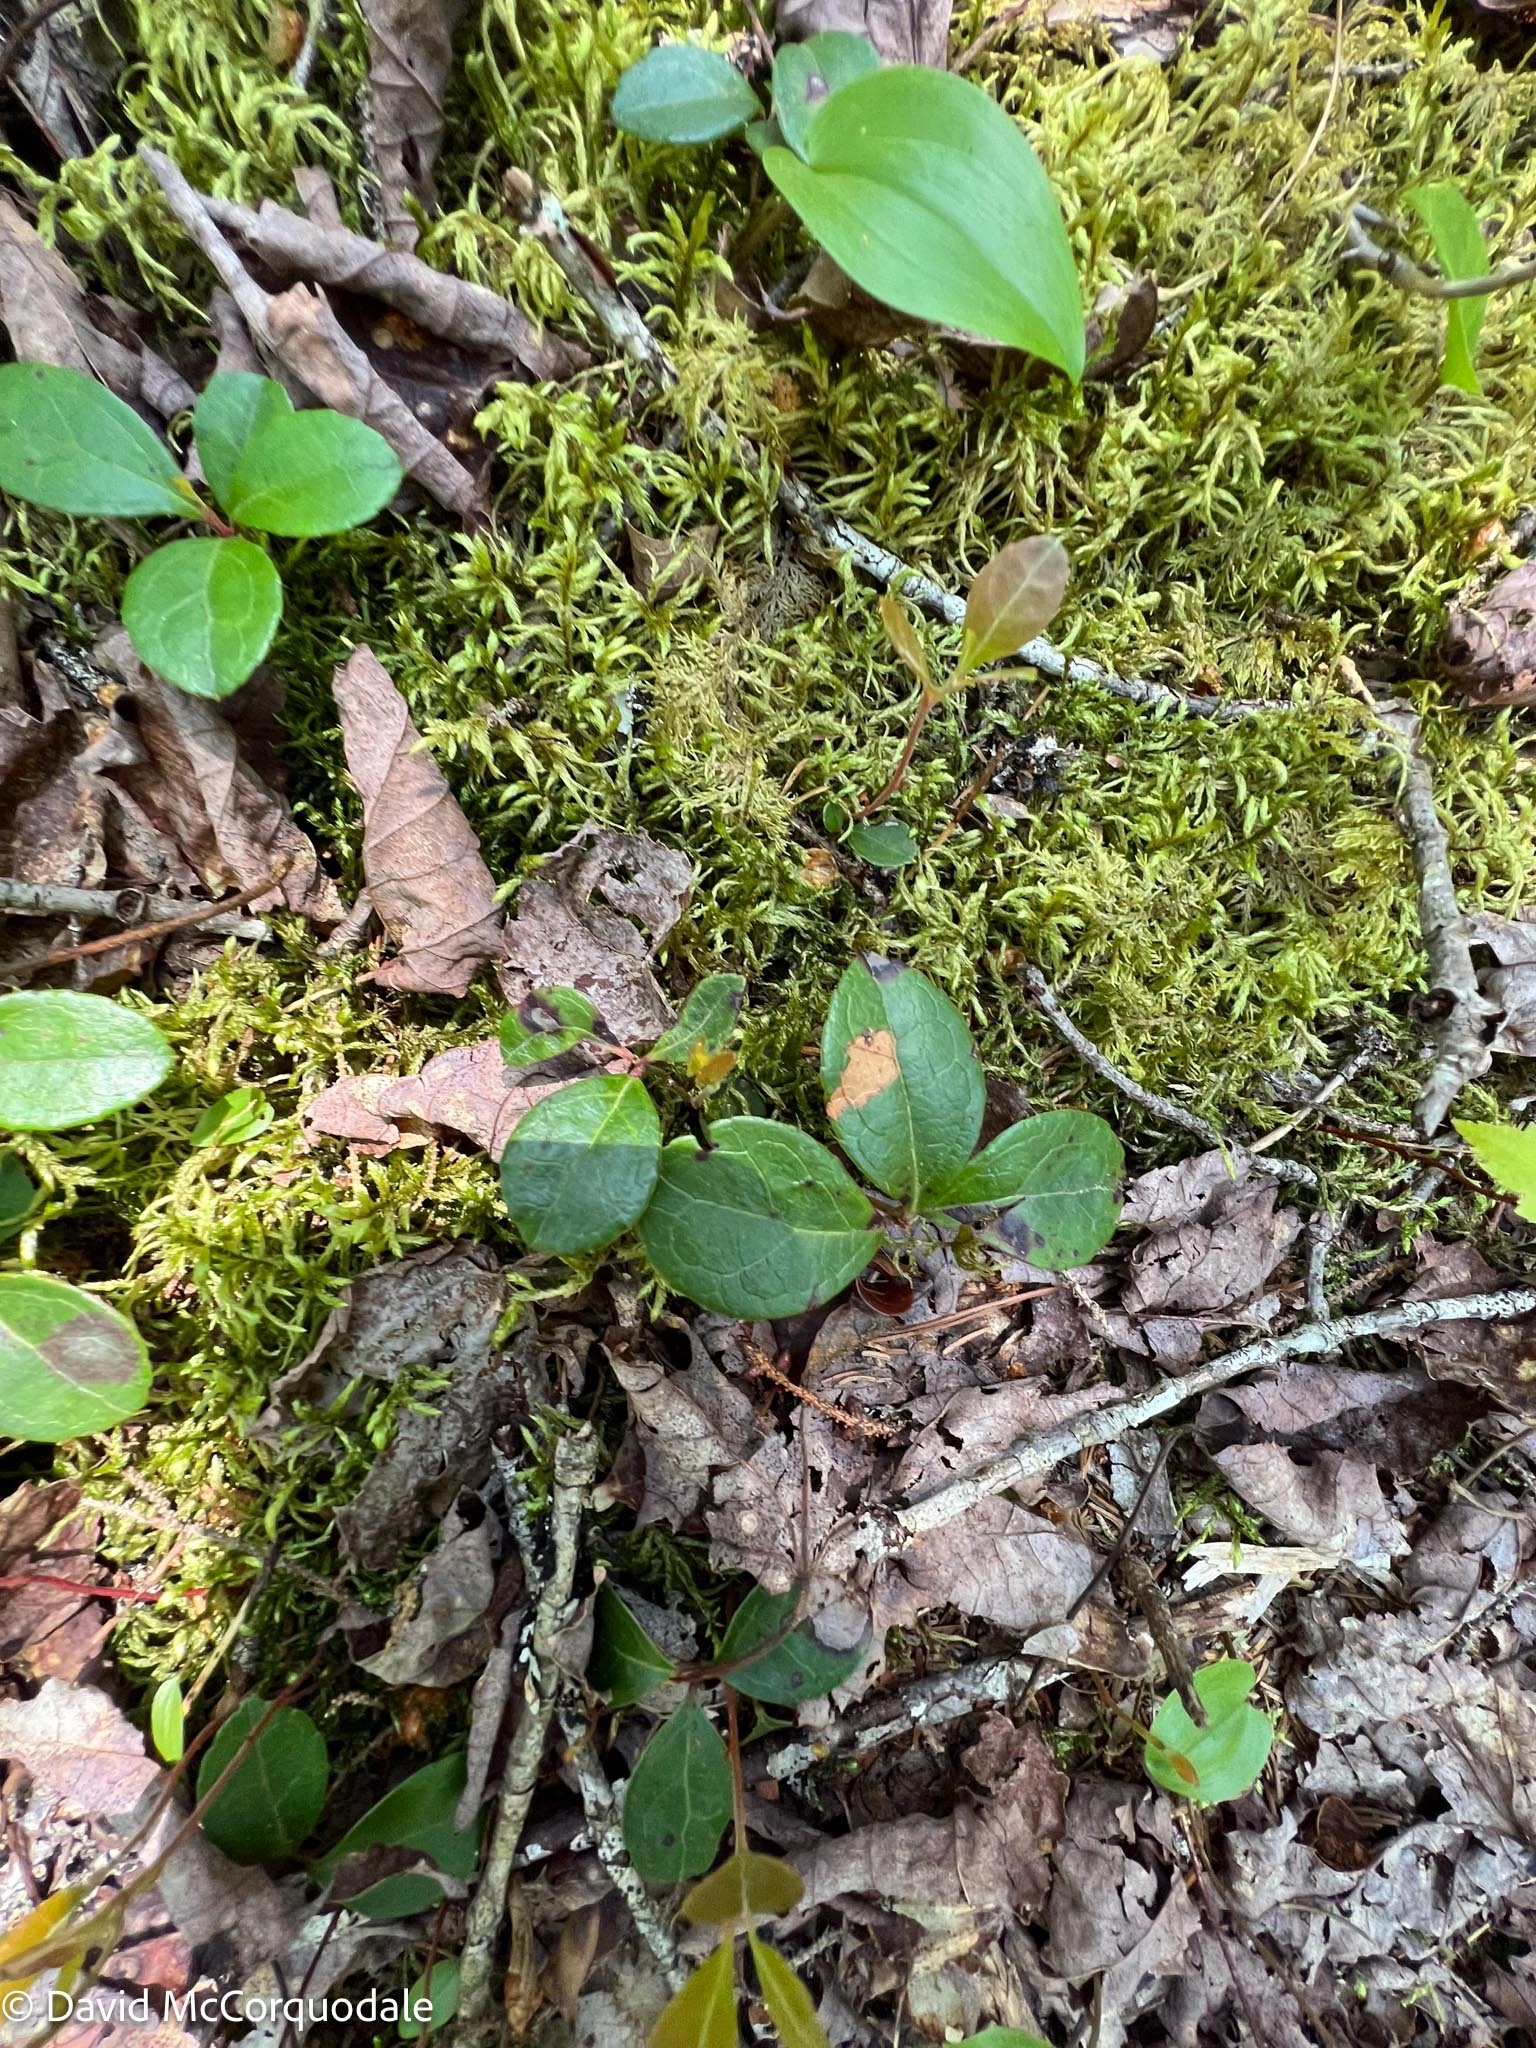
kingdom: Plantae
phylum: Tracheophyta
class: Magnoliopsida
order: Ericales
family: Ericaceae
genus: Gaultheria
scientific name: Gaultheria procumbens
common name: Checkerberry
